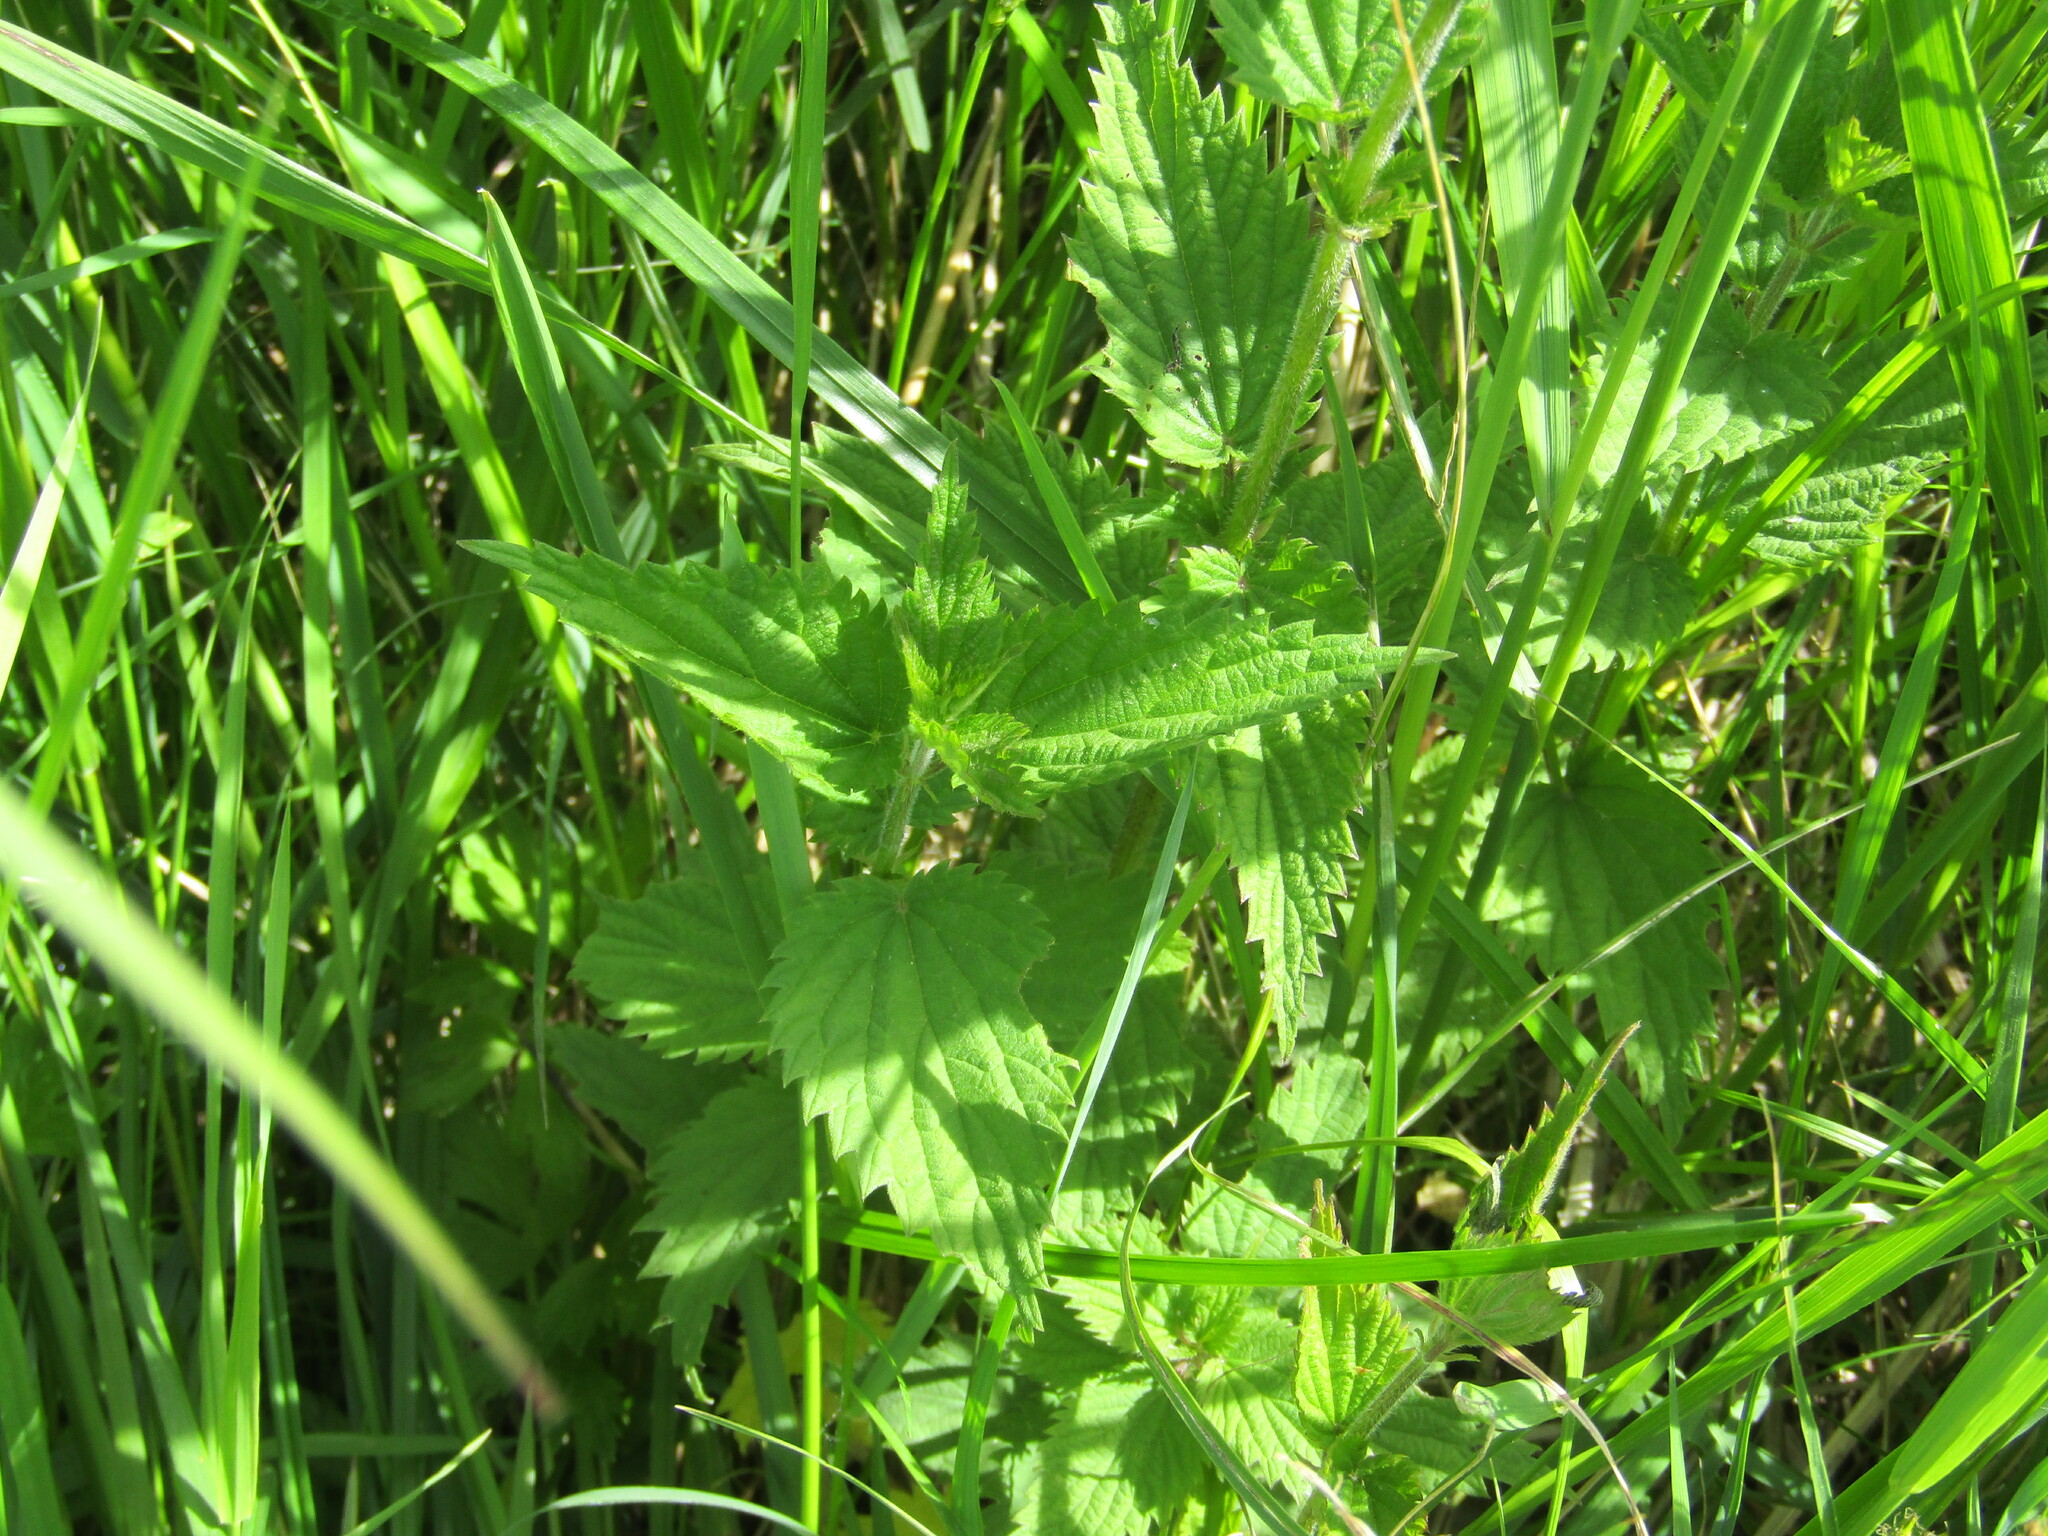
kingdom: Plantae
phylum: Tracheophyta
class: Magnoliopsida
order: Rosales
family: Urticaceae
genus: Urtica
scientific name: Urtica dioica
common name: Common nettle
